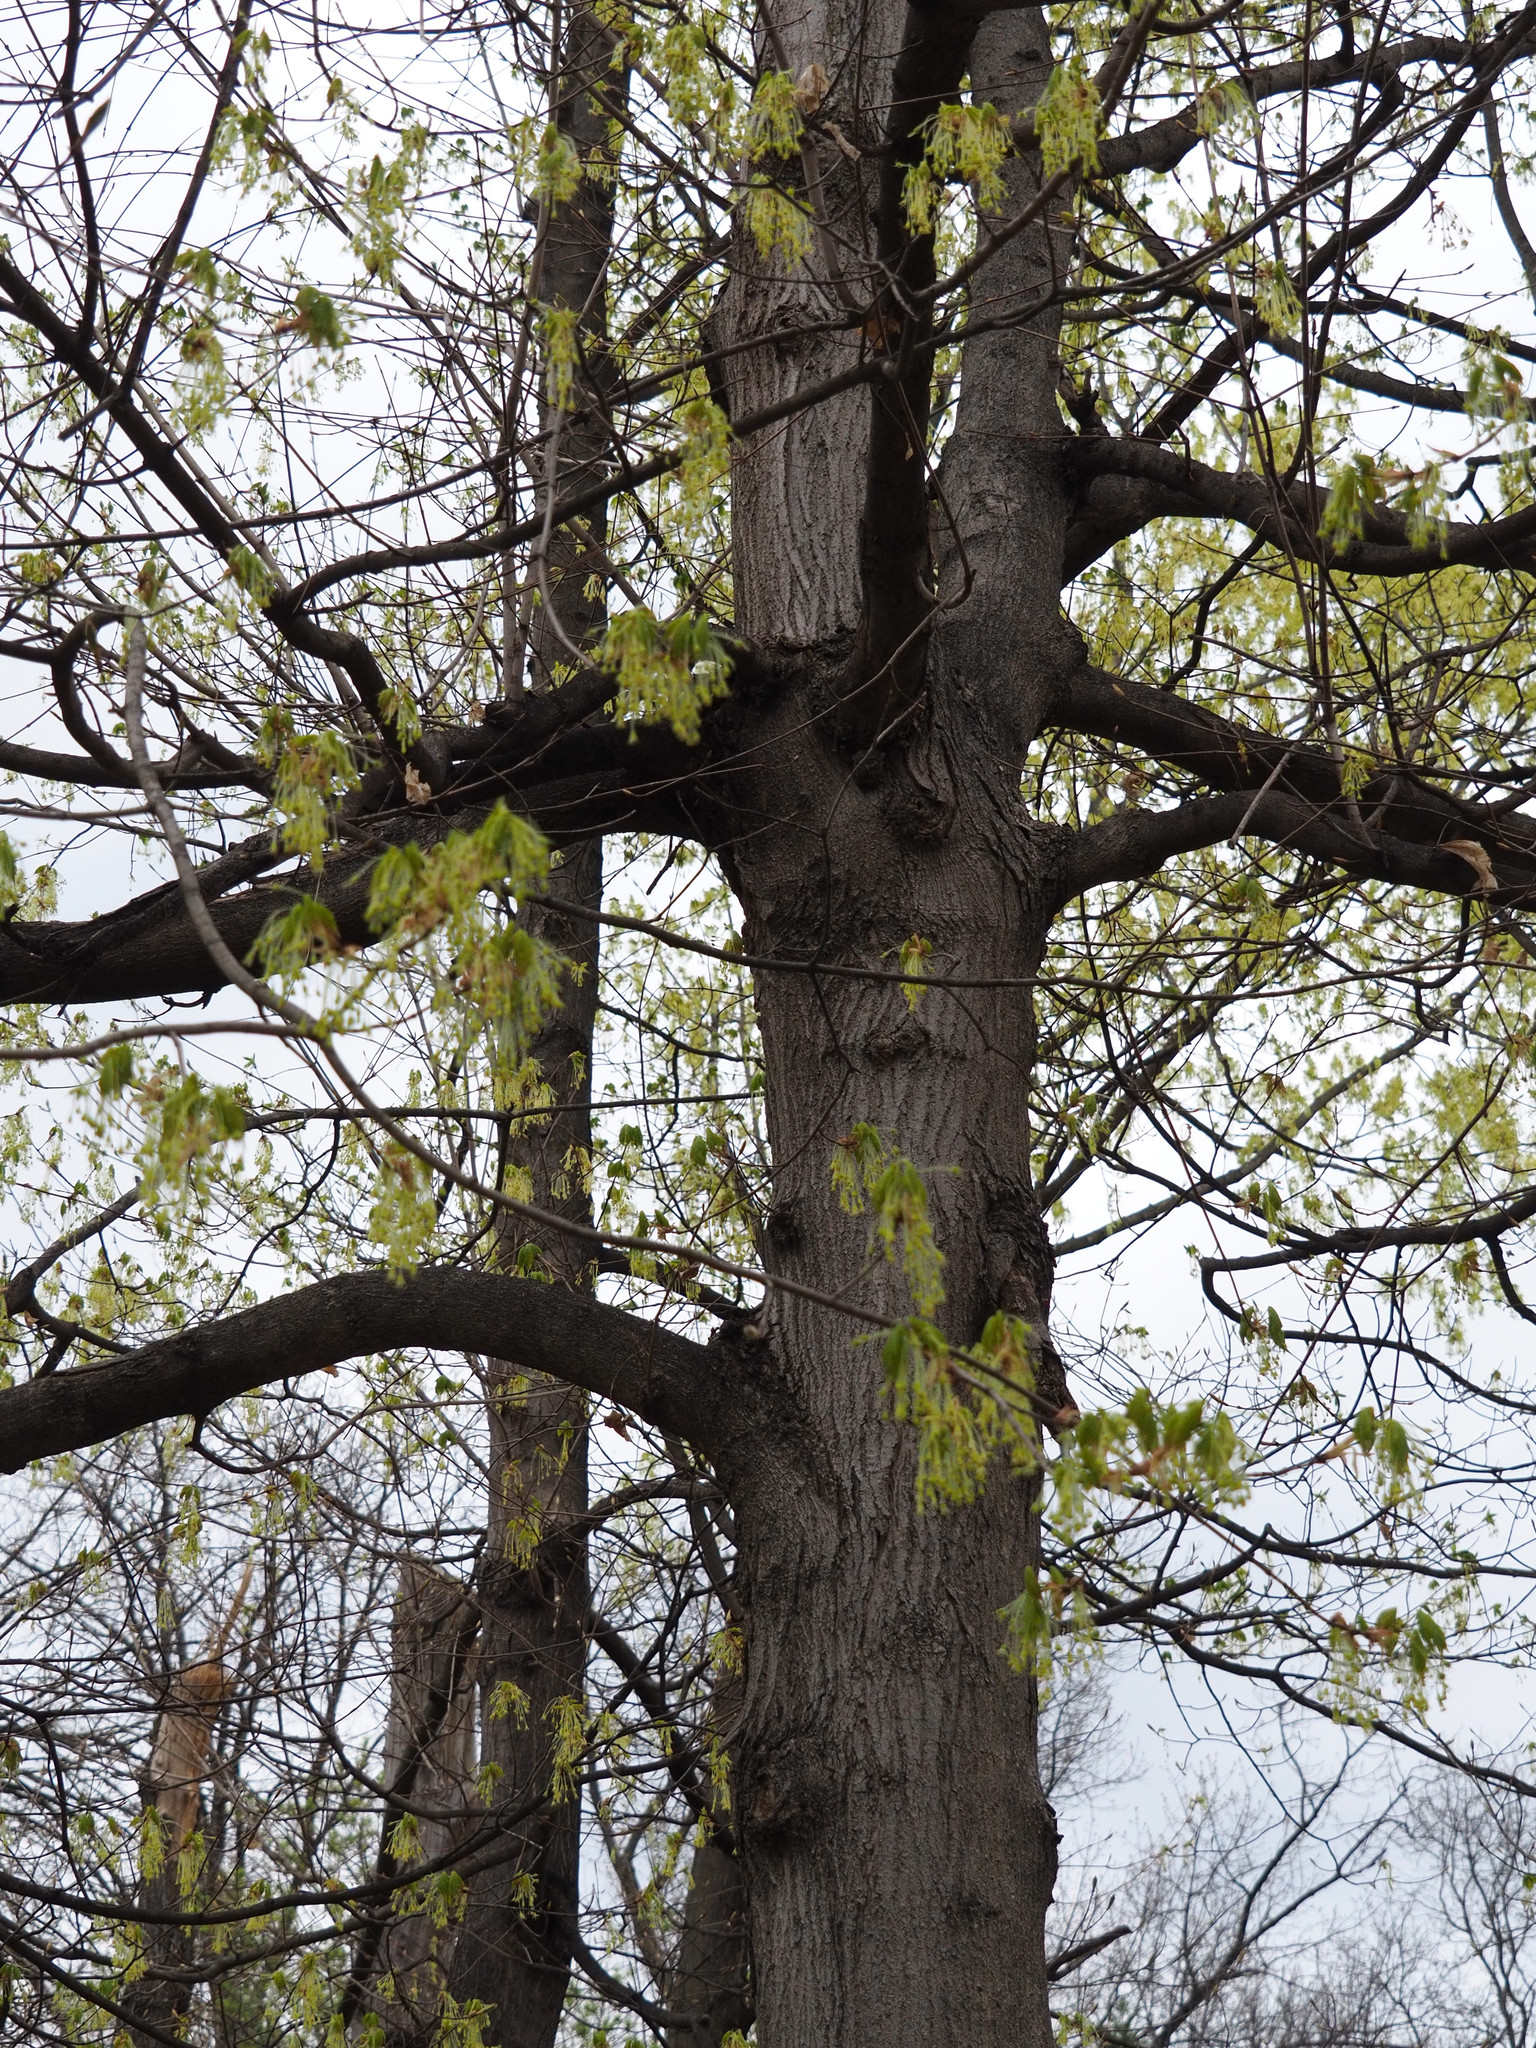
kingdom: Plantae
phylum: Tracheophyta
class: Magnoliopsida
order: Sapindales
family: Sapindaceae
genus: Acer
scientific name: Acer negundo
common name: Ashleaf maple
